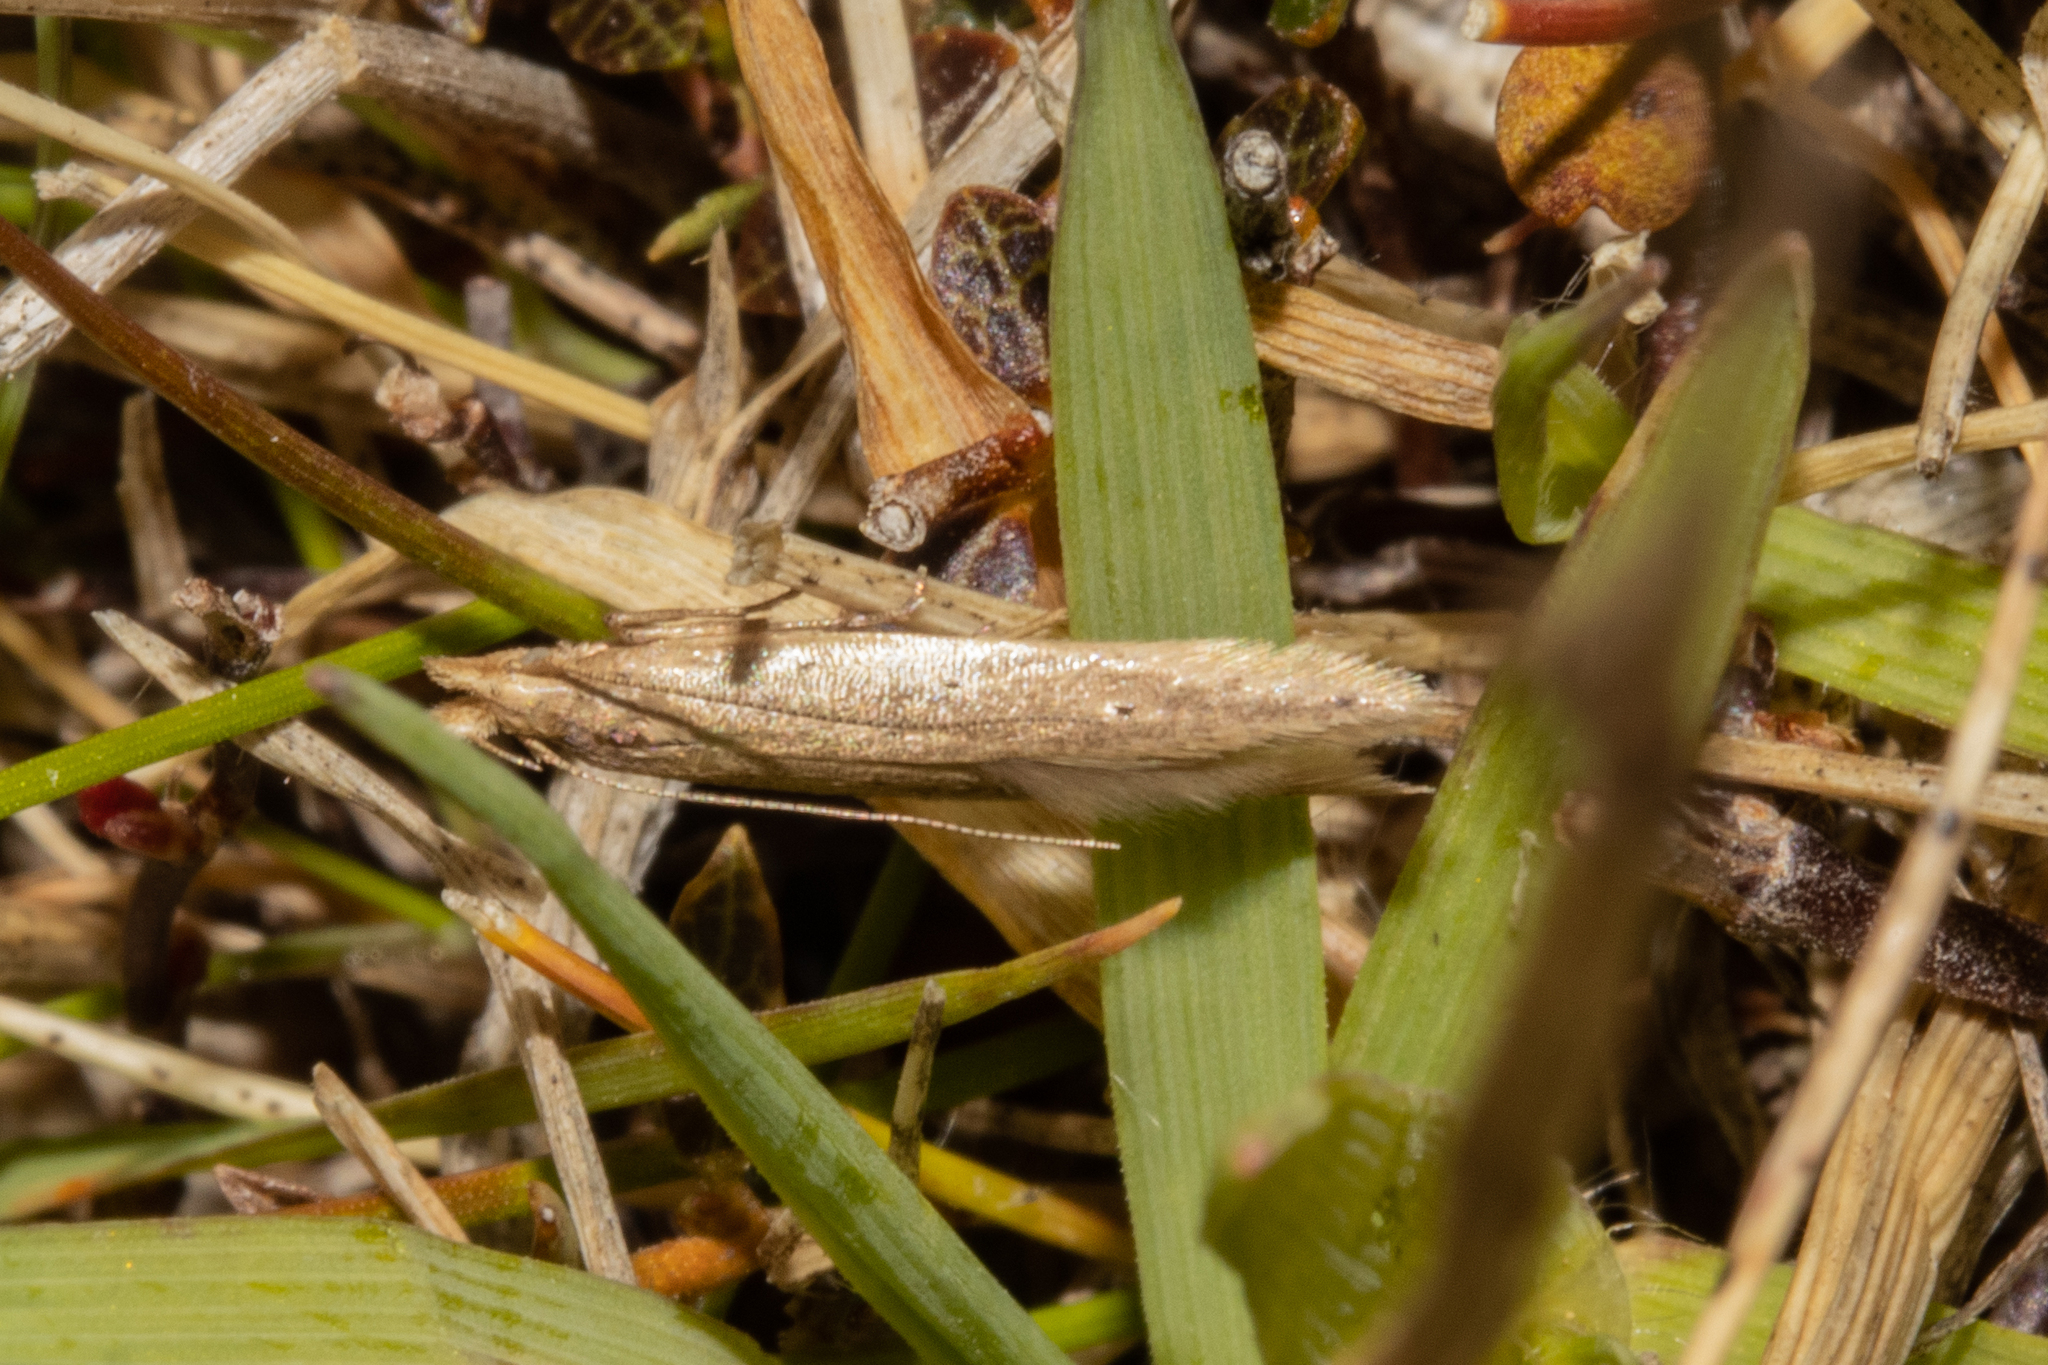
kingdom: Animalia
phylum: Arthropoda
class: Insecta
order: Lepidoptera
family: Gelechiidae
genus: Epiphthora
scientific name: Epiphthora calamogonus
